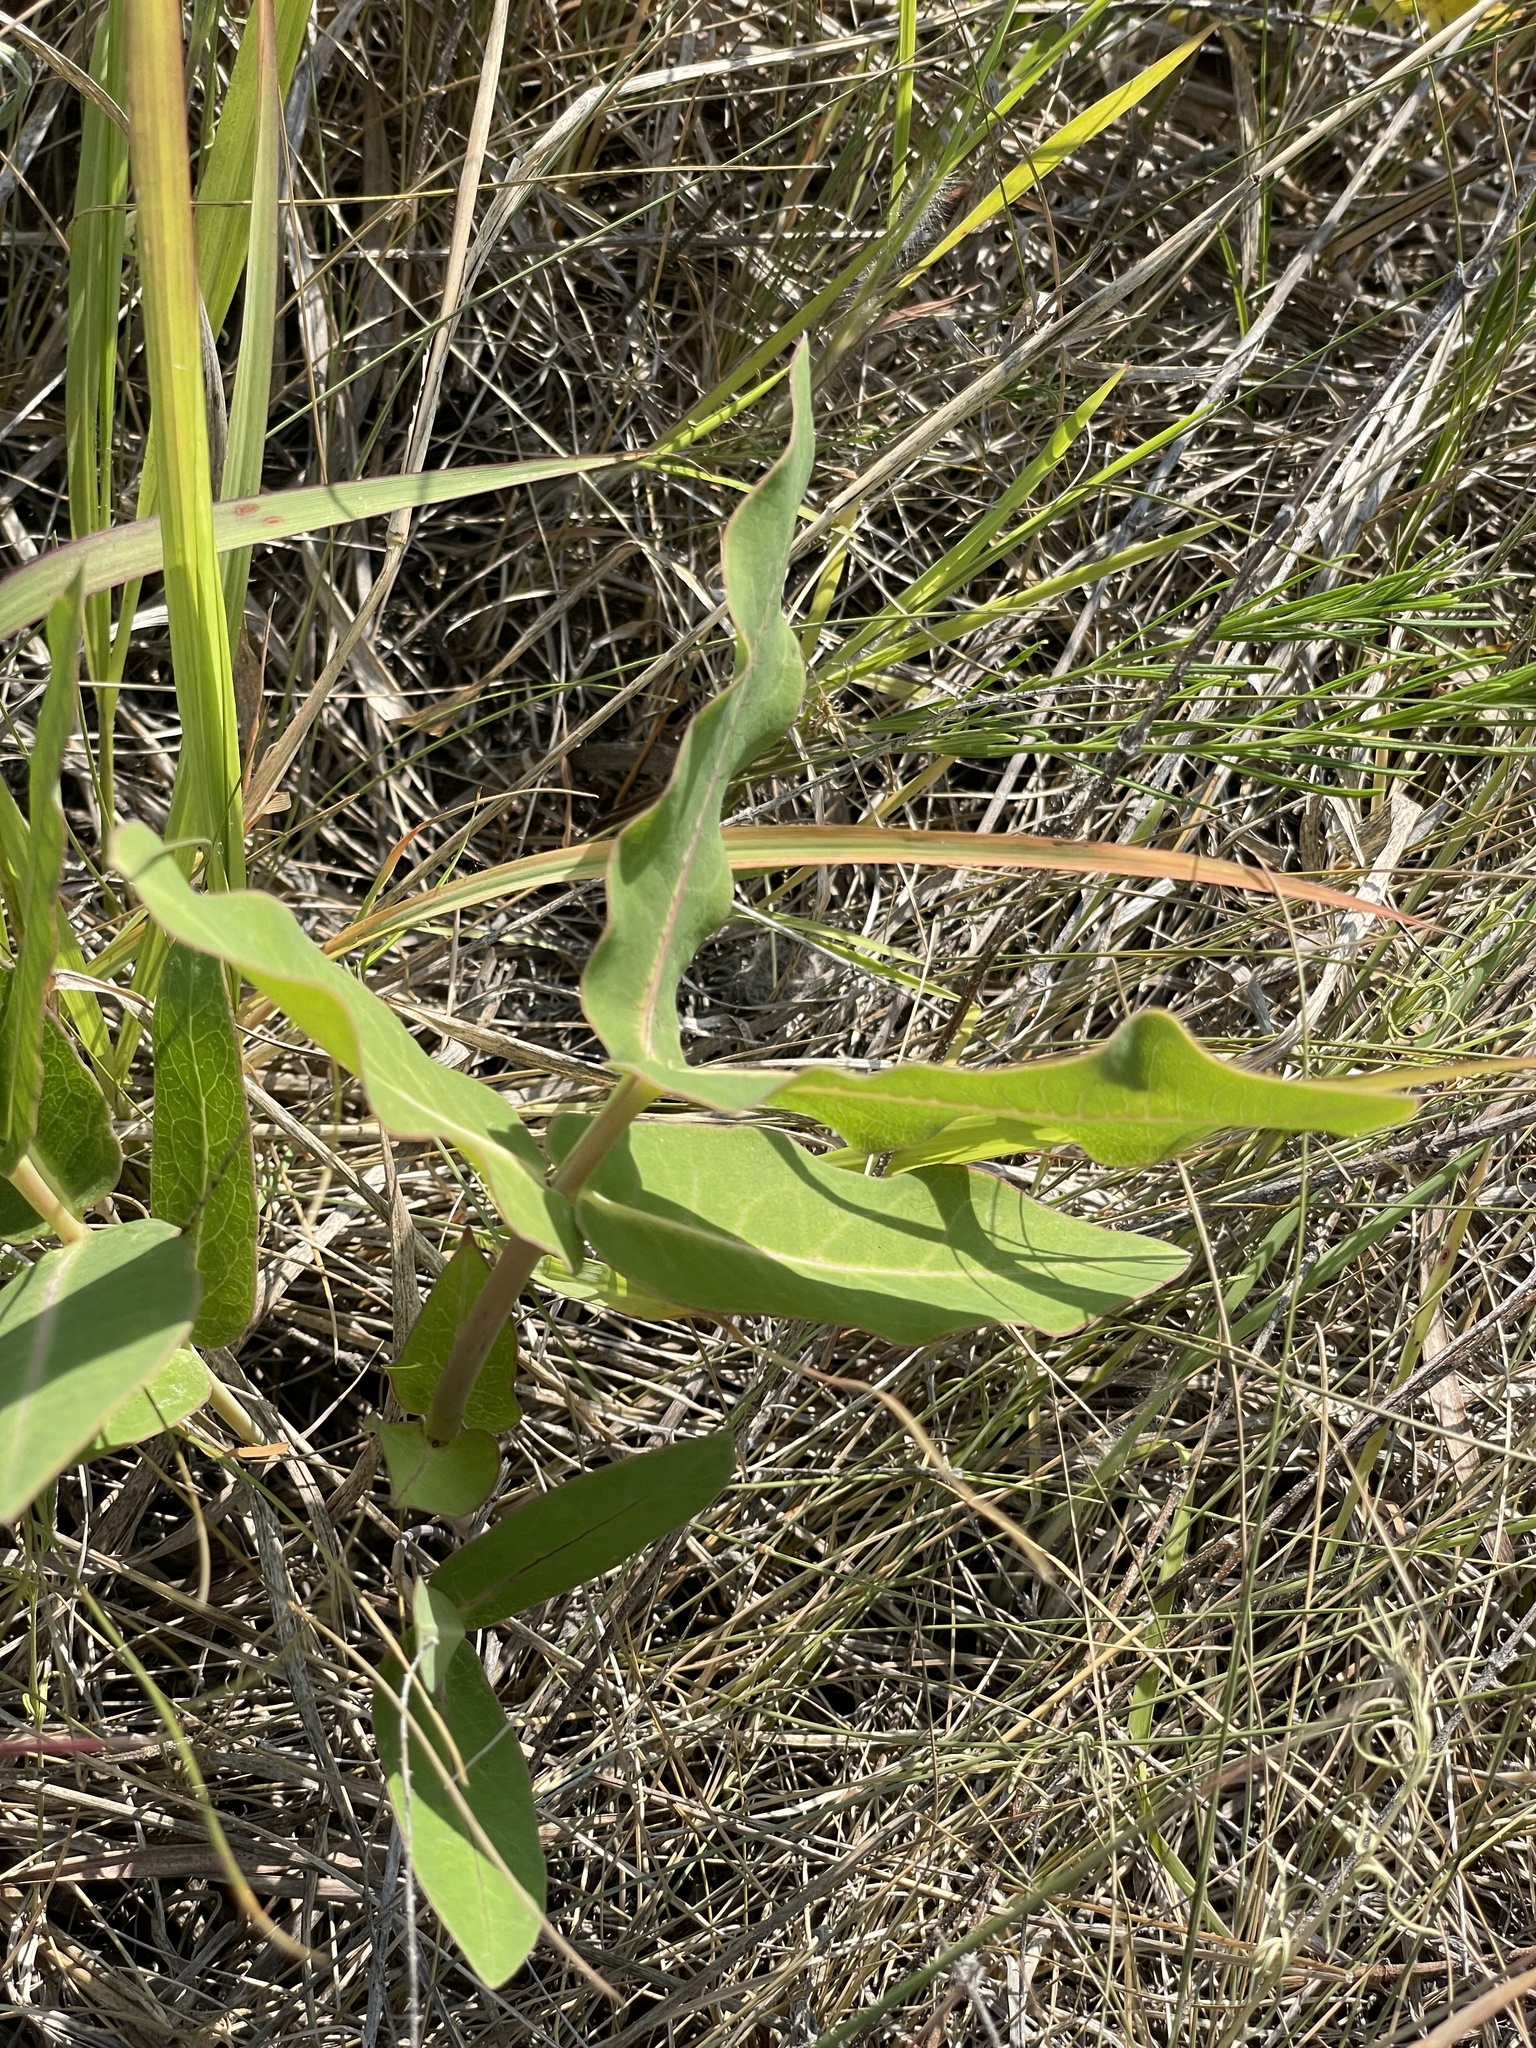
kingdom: Plantae
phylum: Tracheophyta
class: Magnoliopsida
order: Gentianales
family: Apocynaceae
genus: Asclepias
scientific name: Asclepias amplexicaulis
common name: Blunt-leaf milkweed
